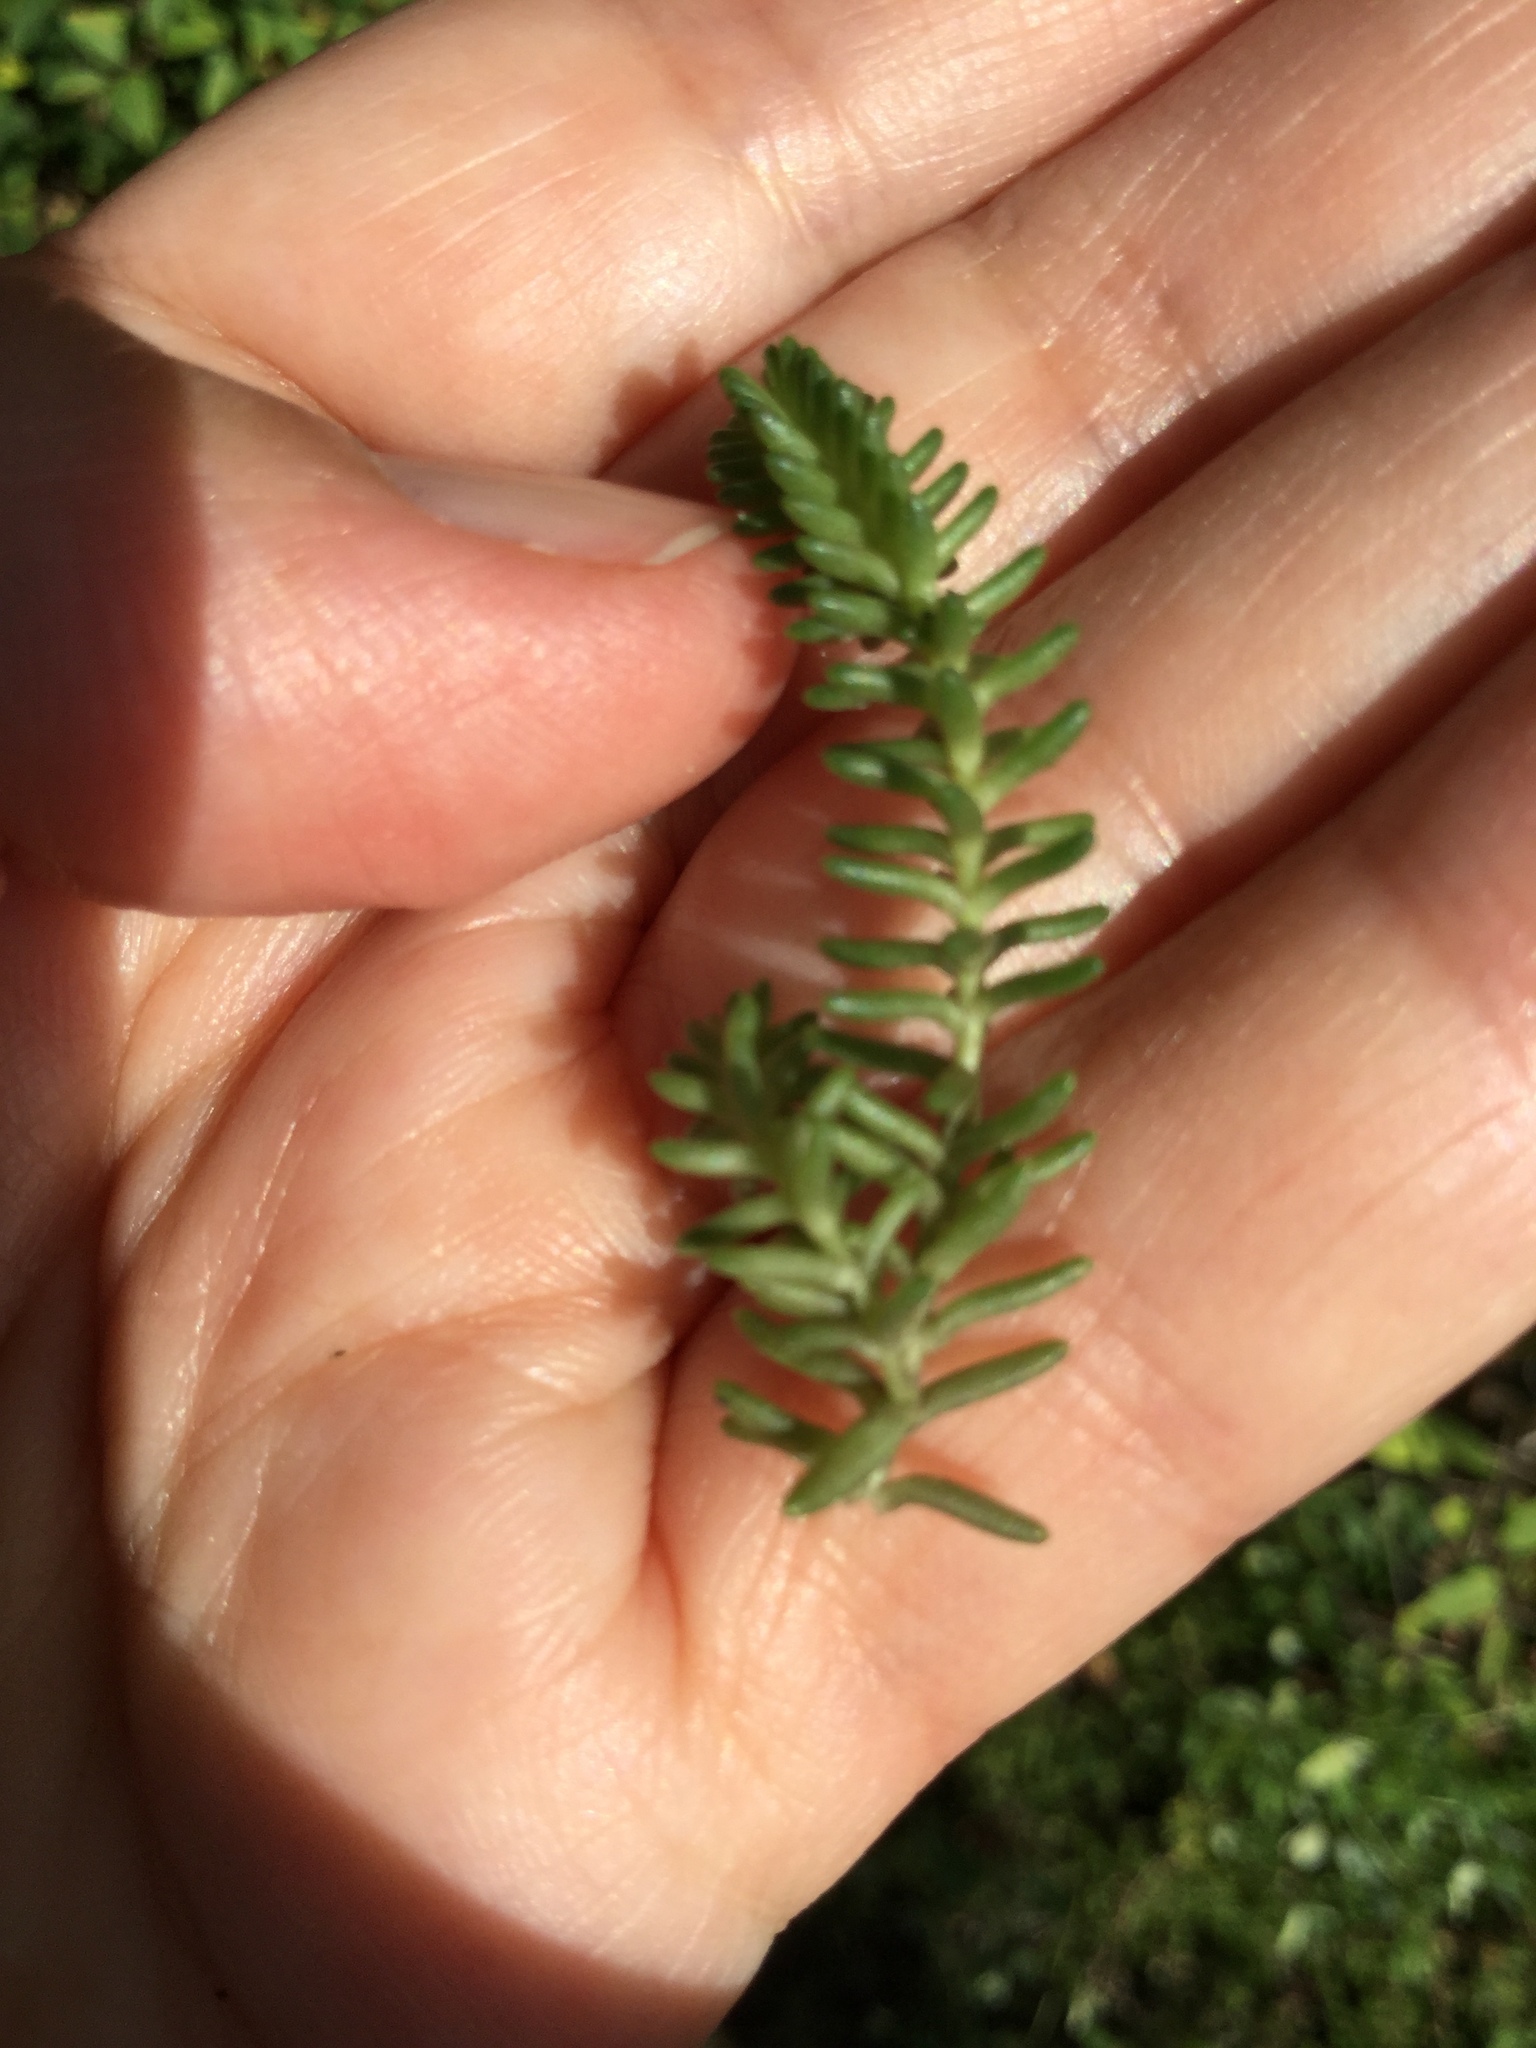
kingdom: Plantae
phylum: Tracheophyta
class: Magnoliopsida
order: Saxifragales
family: Crassulaceae
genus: Sedum
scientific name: Sedum sexangulare
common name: Tasteless stonecrop
